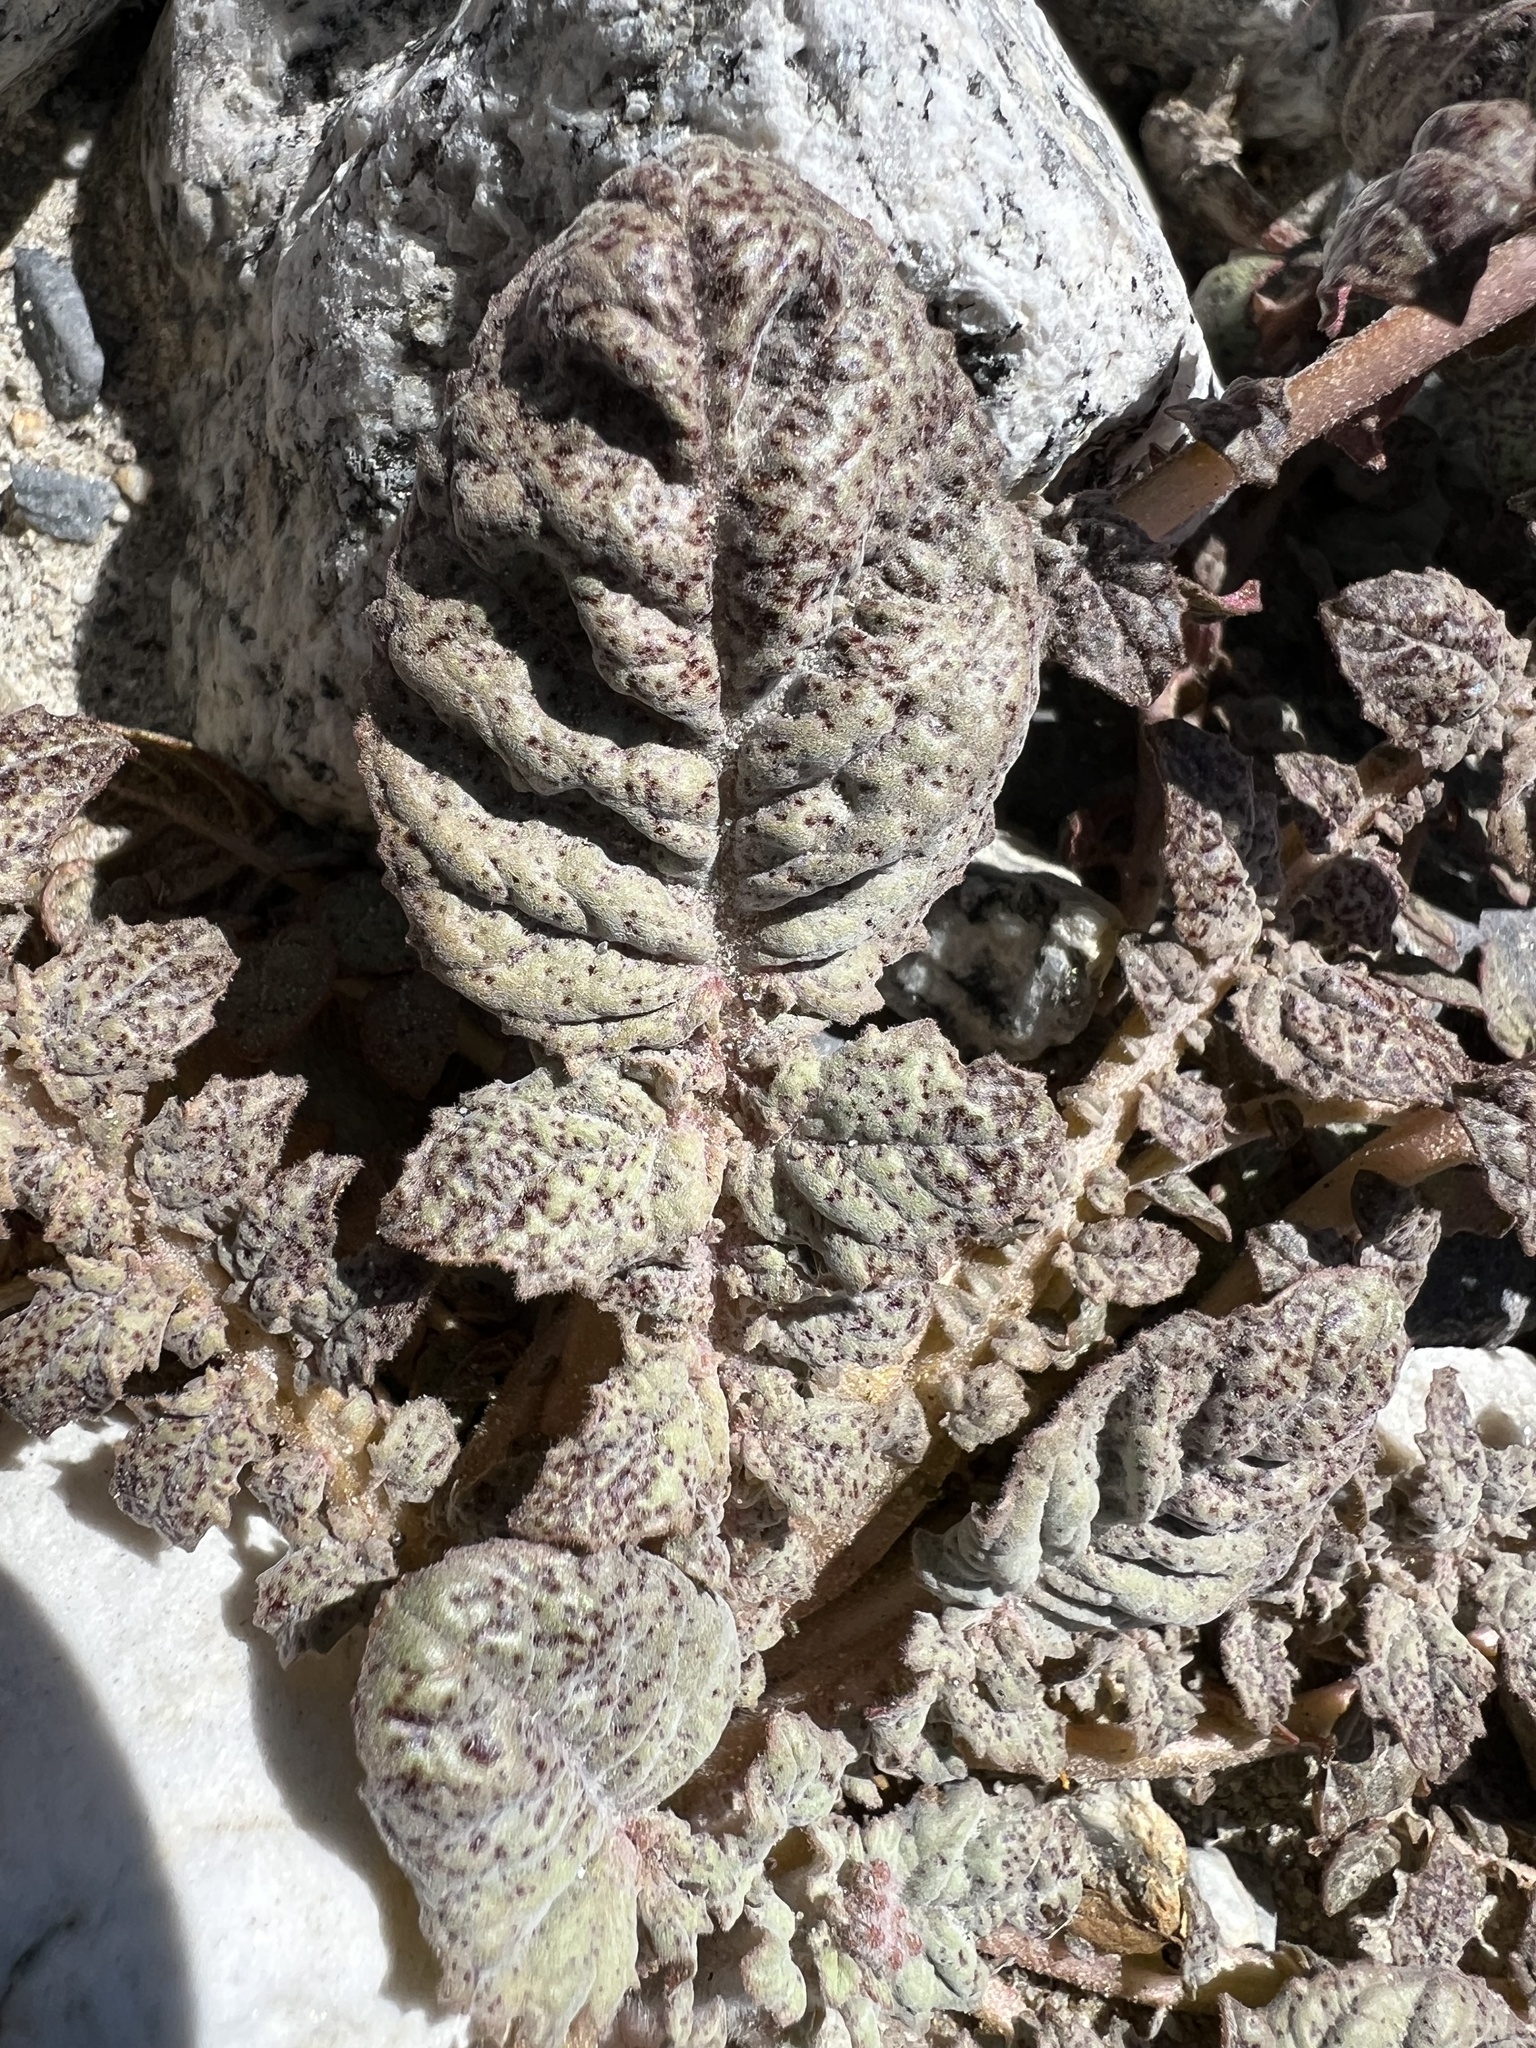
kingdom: Plantae
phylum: Tracheophyta
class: Magnoliopsida
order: Myrtales
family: Onagraceae
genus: Chylismia
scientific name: Chylismia walkeri
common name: Walker's suncup
